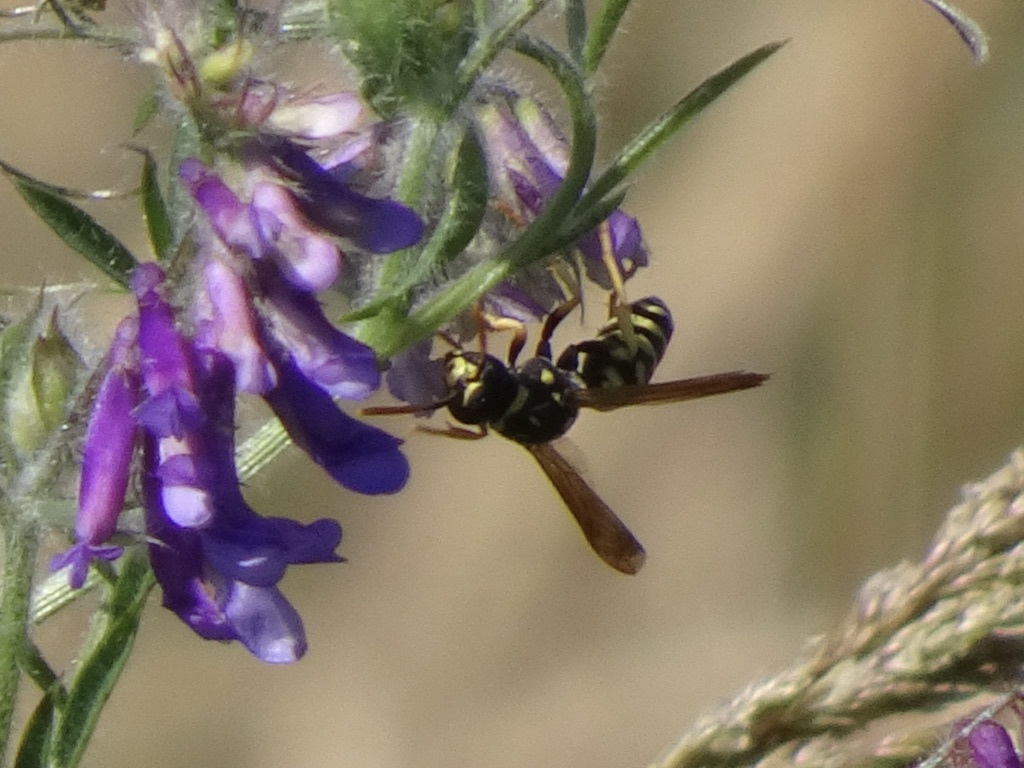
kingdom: Animalia
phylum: Arthropoda
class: Insecta
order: Hymenoptera
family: Eumenidae
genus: Polistes
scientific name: Polistes dominula
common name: Paper wasp
